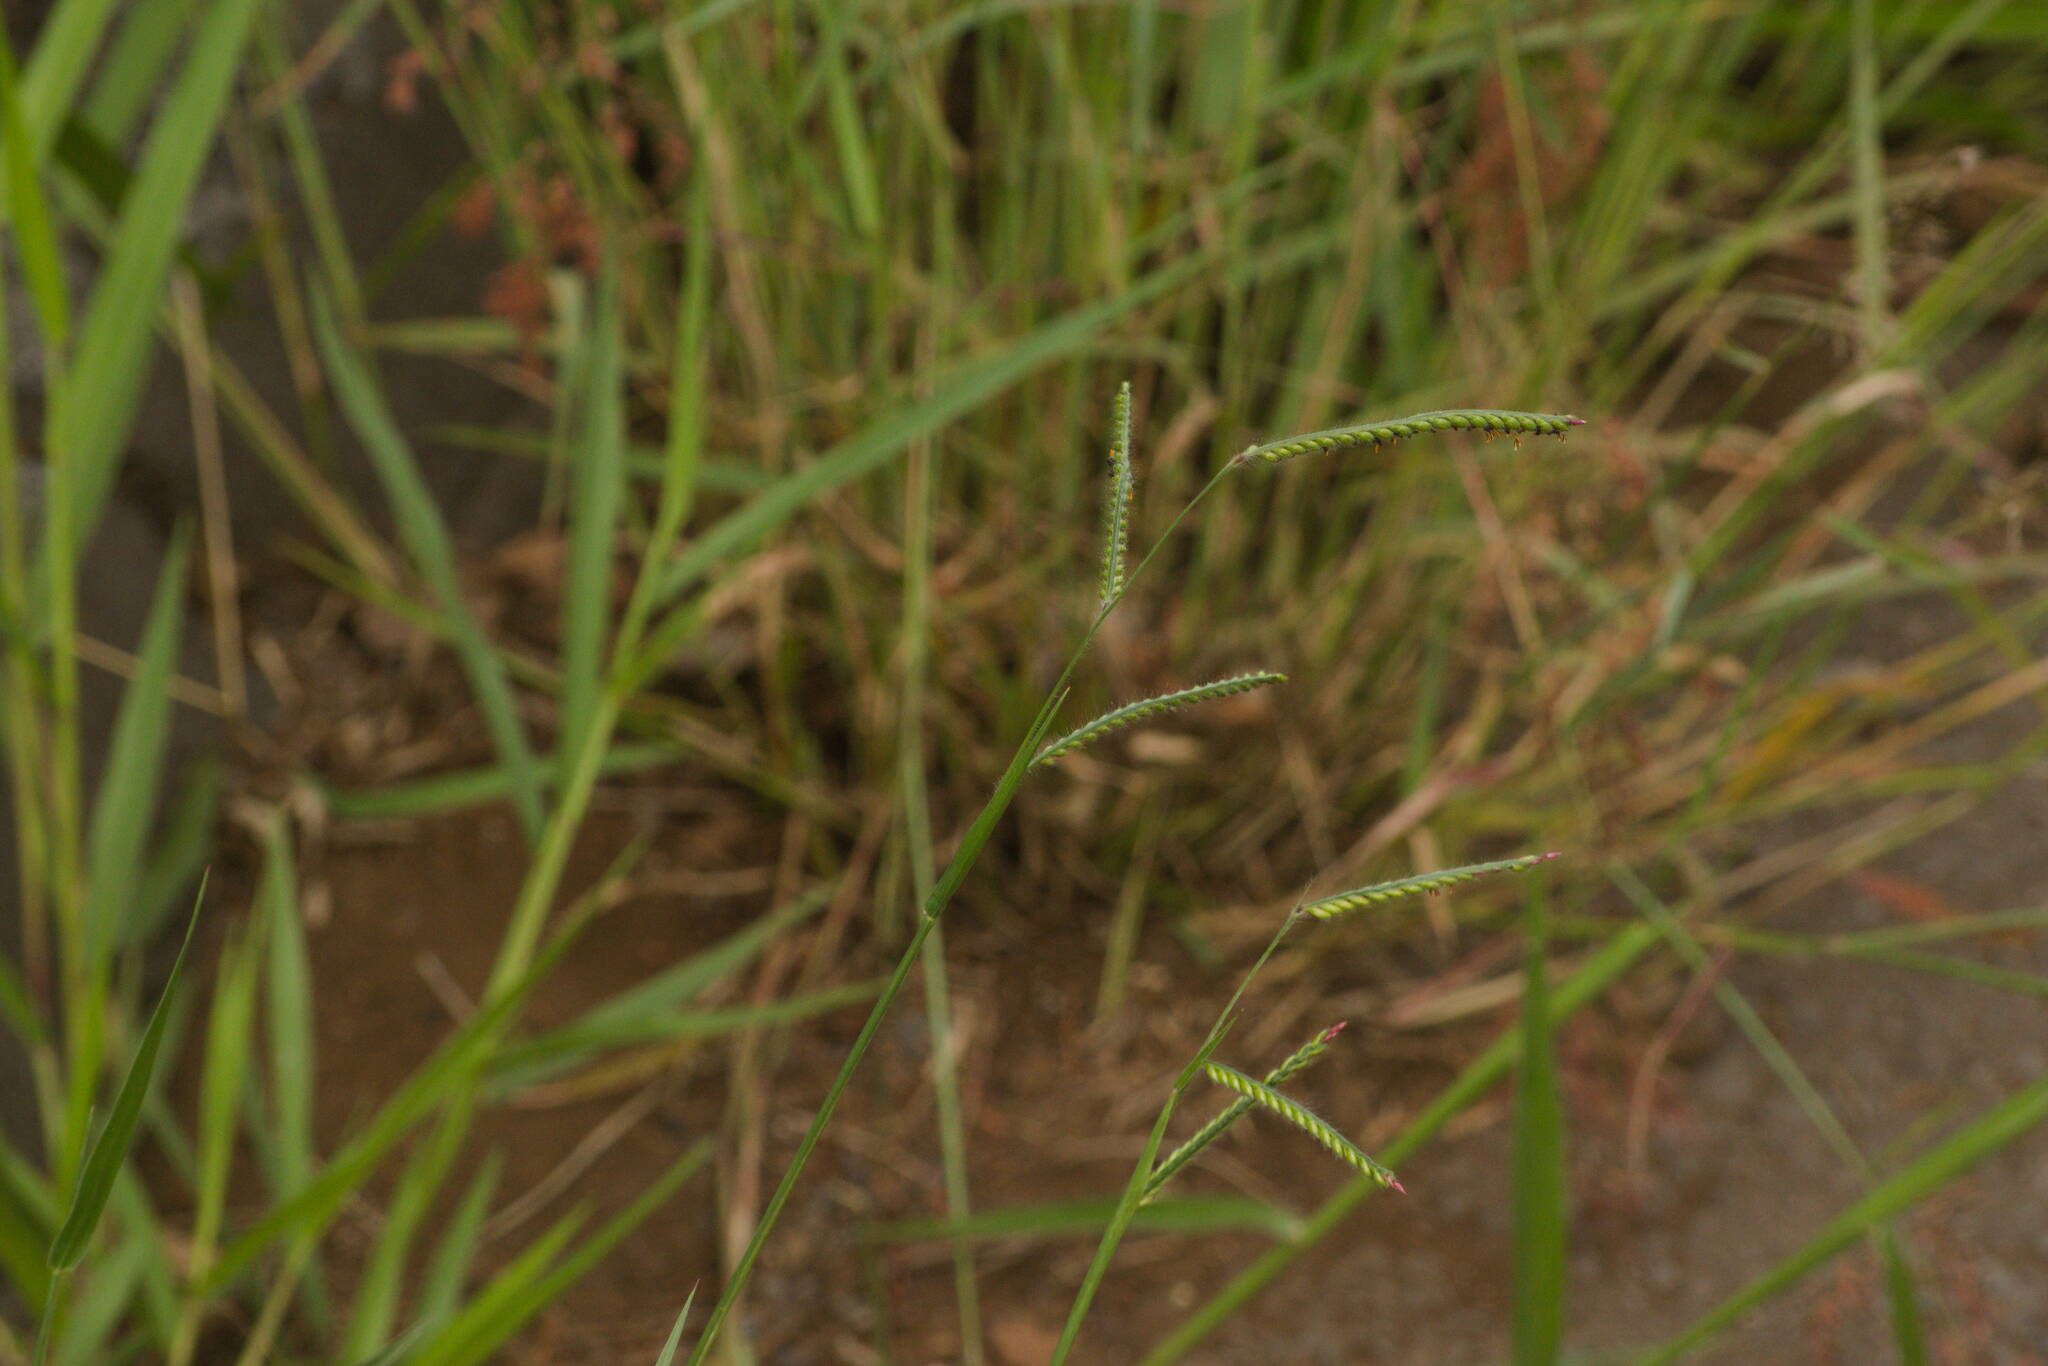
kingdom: Plantae
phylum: Tracheophyta
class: Liliopsida
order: Poales
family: Poaceae
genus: Urochloa
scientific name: Urochloa eminii
